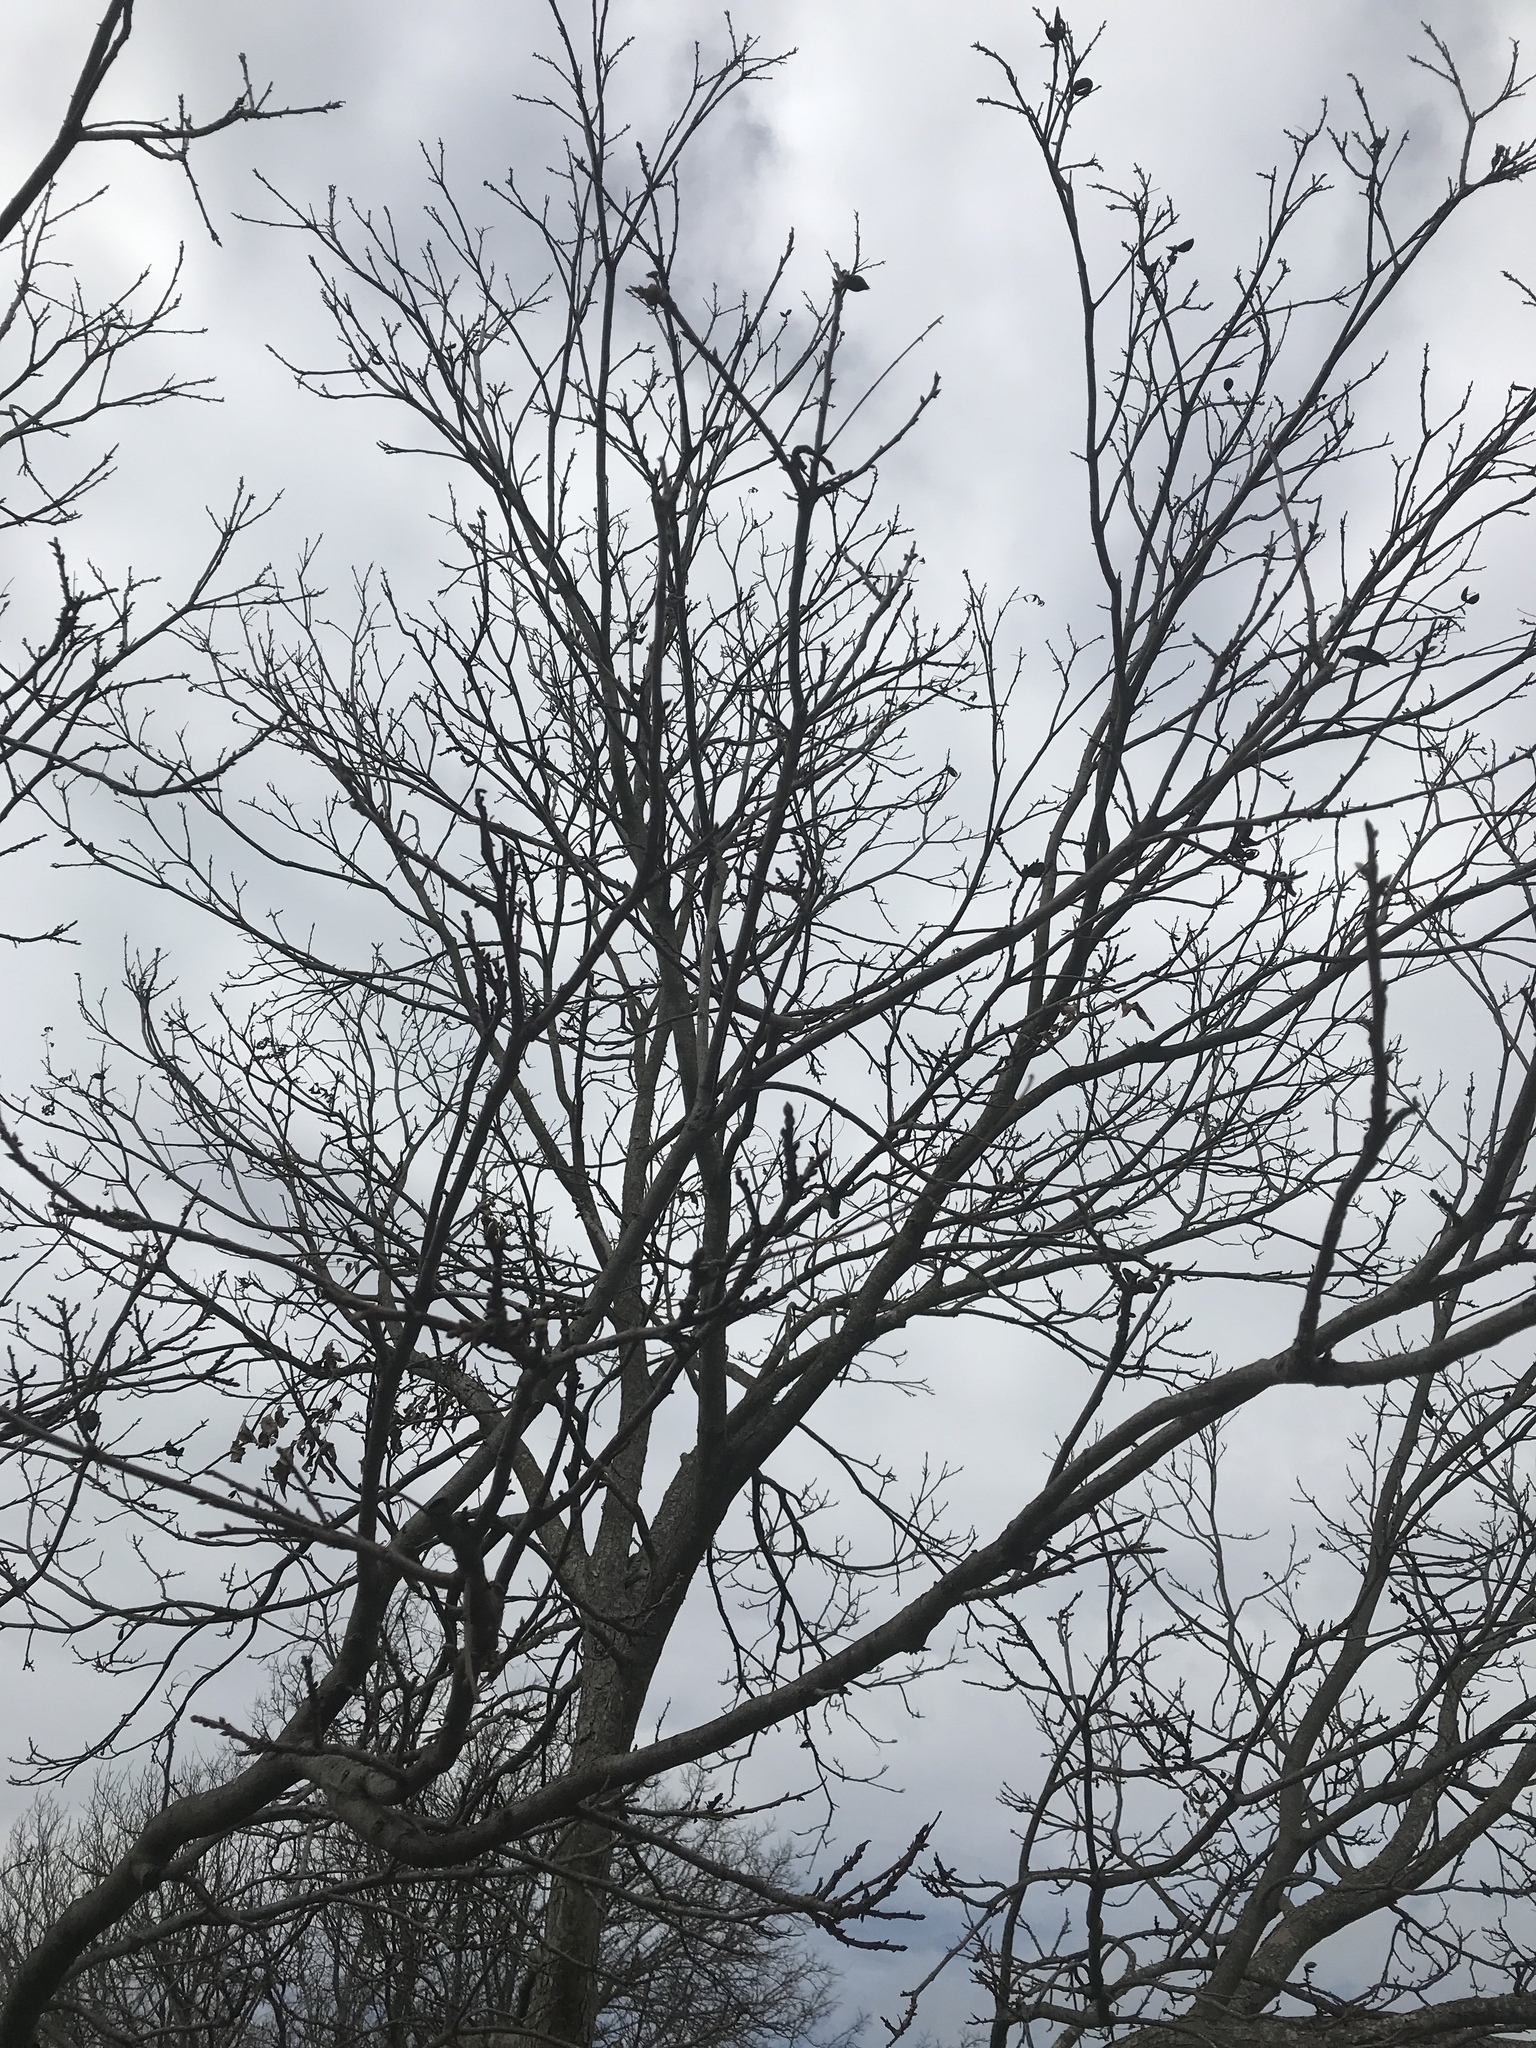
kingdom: Plantae
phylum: Tracheophyta
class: Magnoliopsida
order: Fagales
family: Juglandaceae
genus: Carya
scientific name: Carya illinoinensis
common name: Pecan
